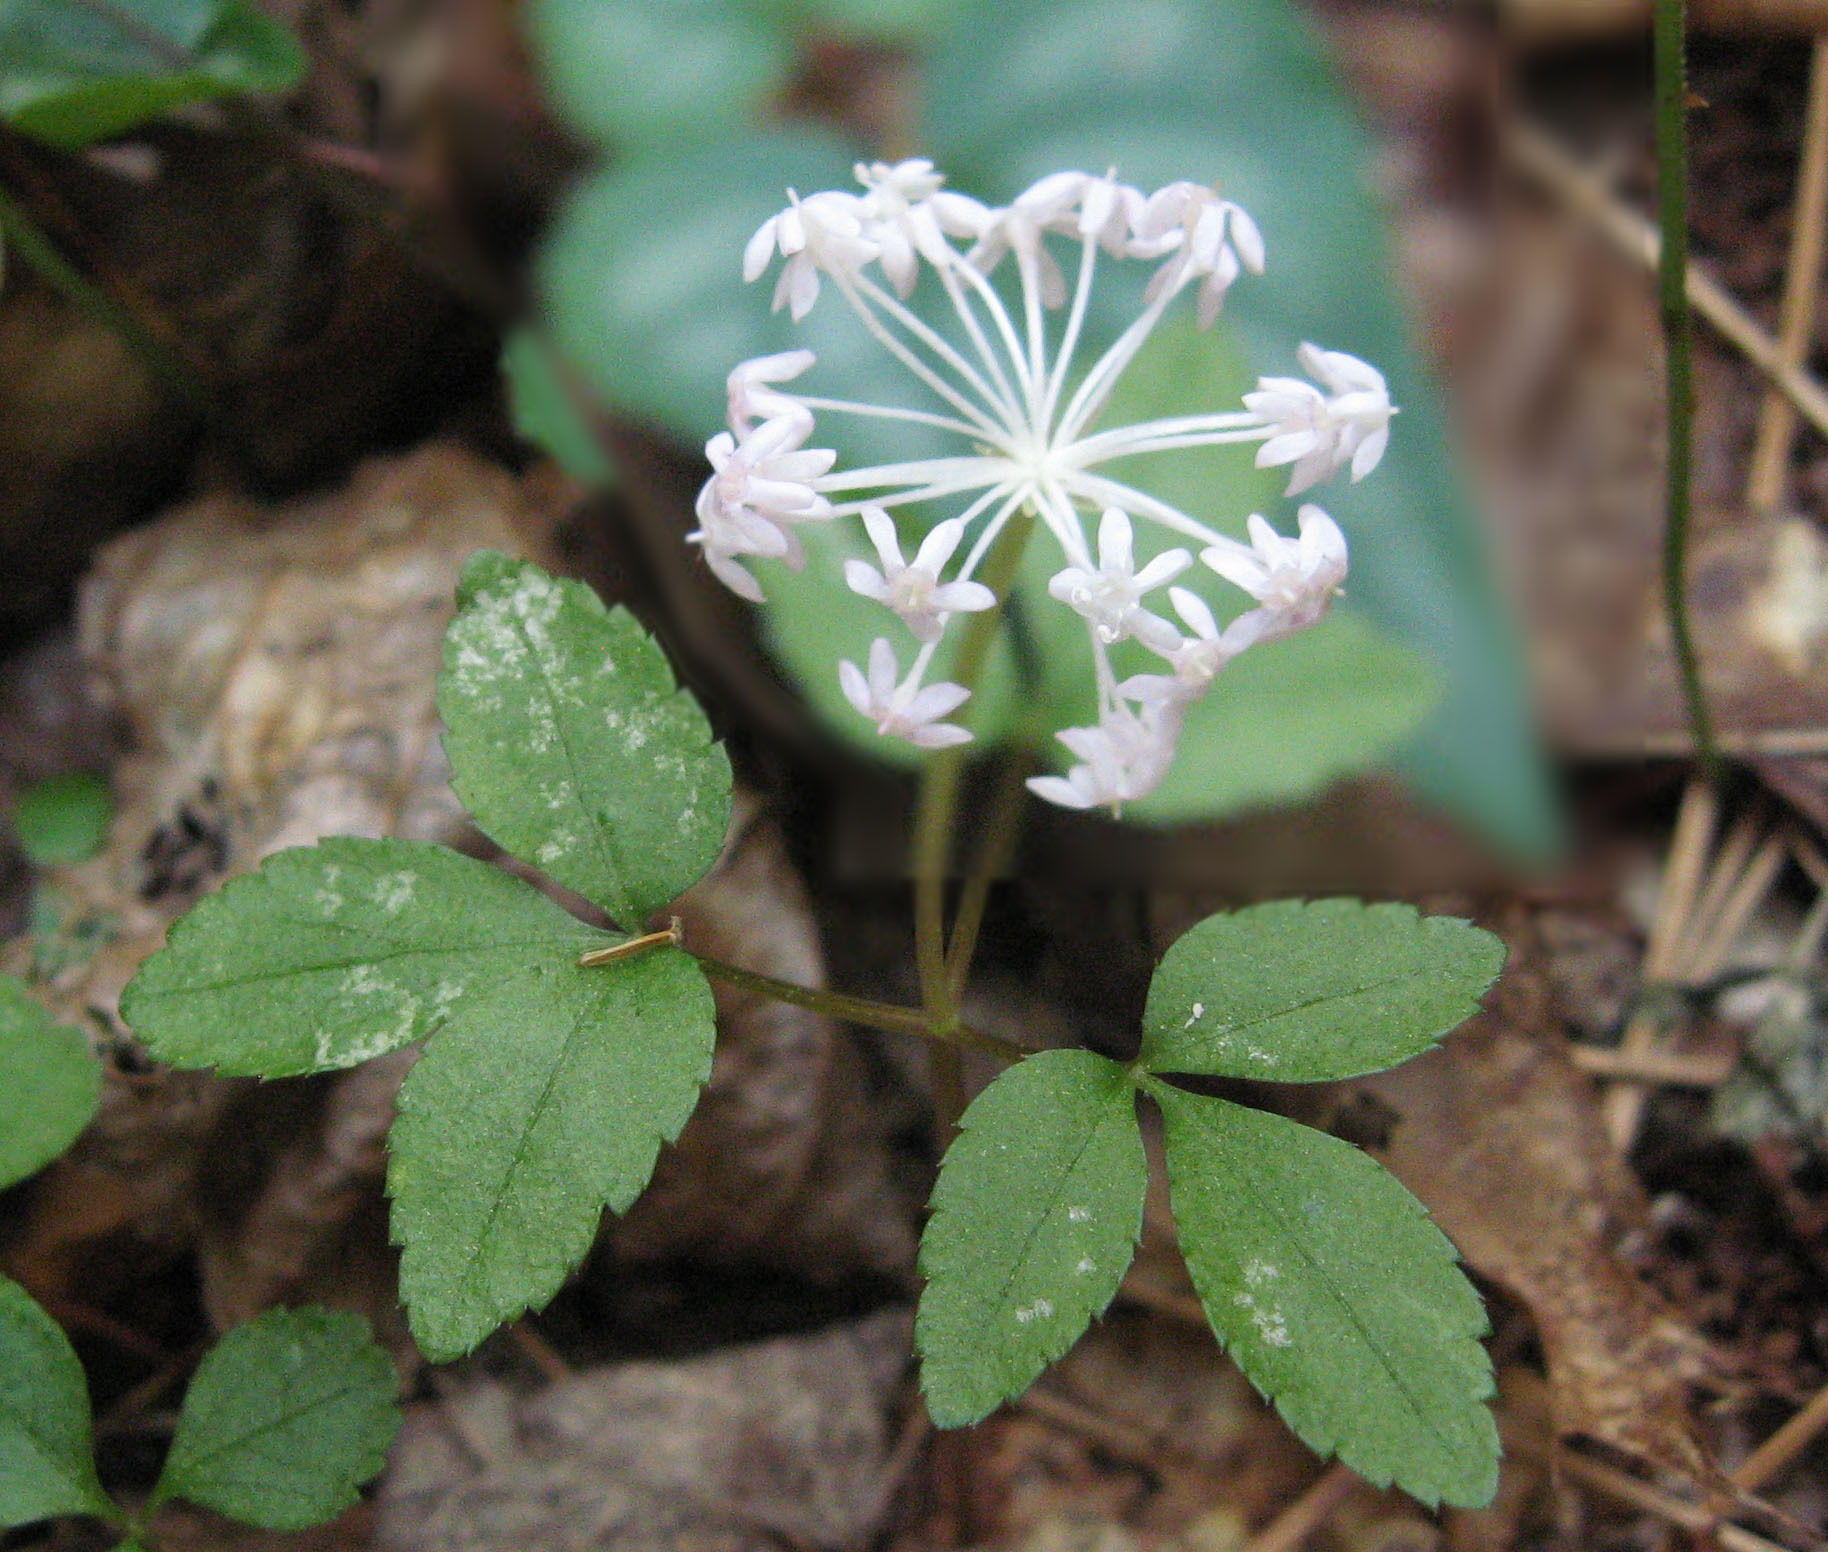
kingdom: Plantae
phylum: Tracheophyta
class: Magnoliopsida
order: Apiales
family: Araliaceae
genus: Panax
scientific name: Panax trifolius
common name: Dwarf ginseng
